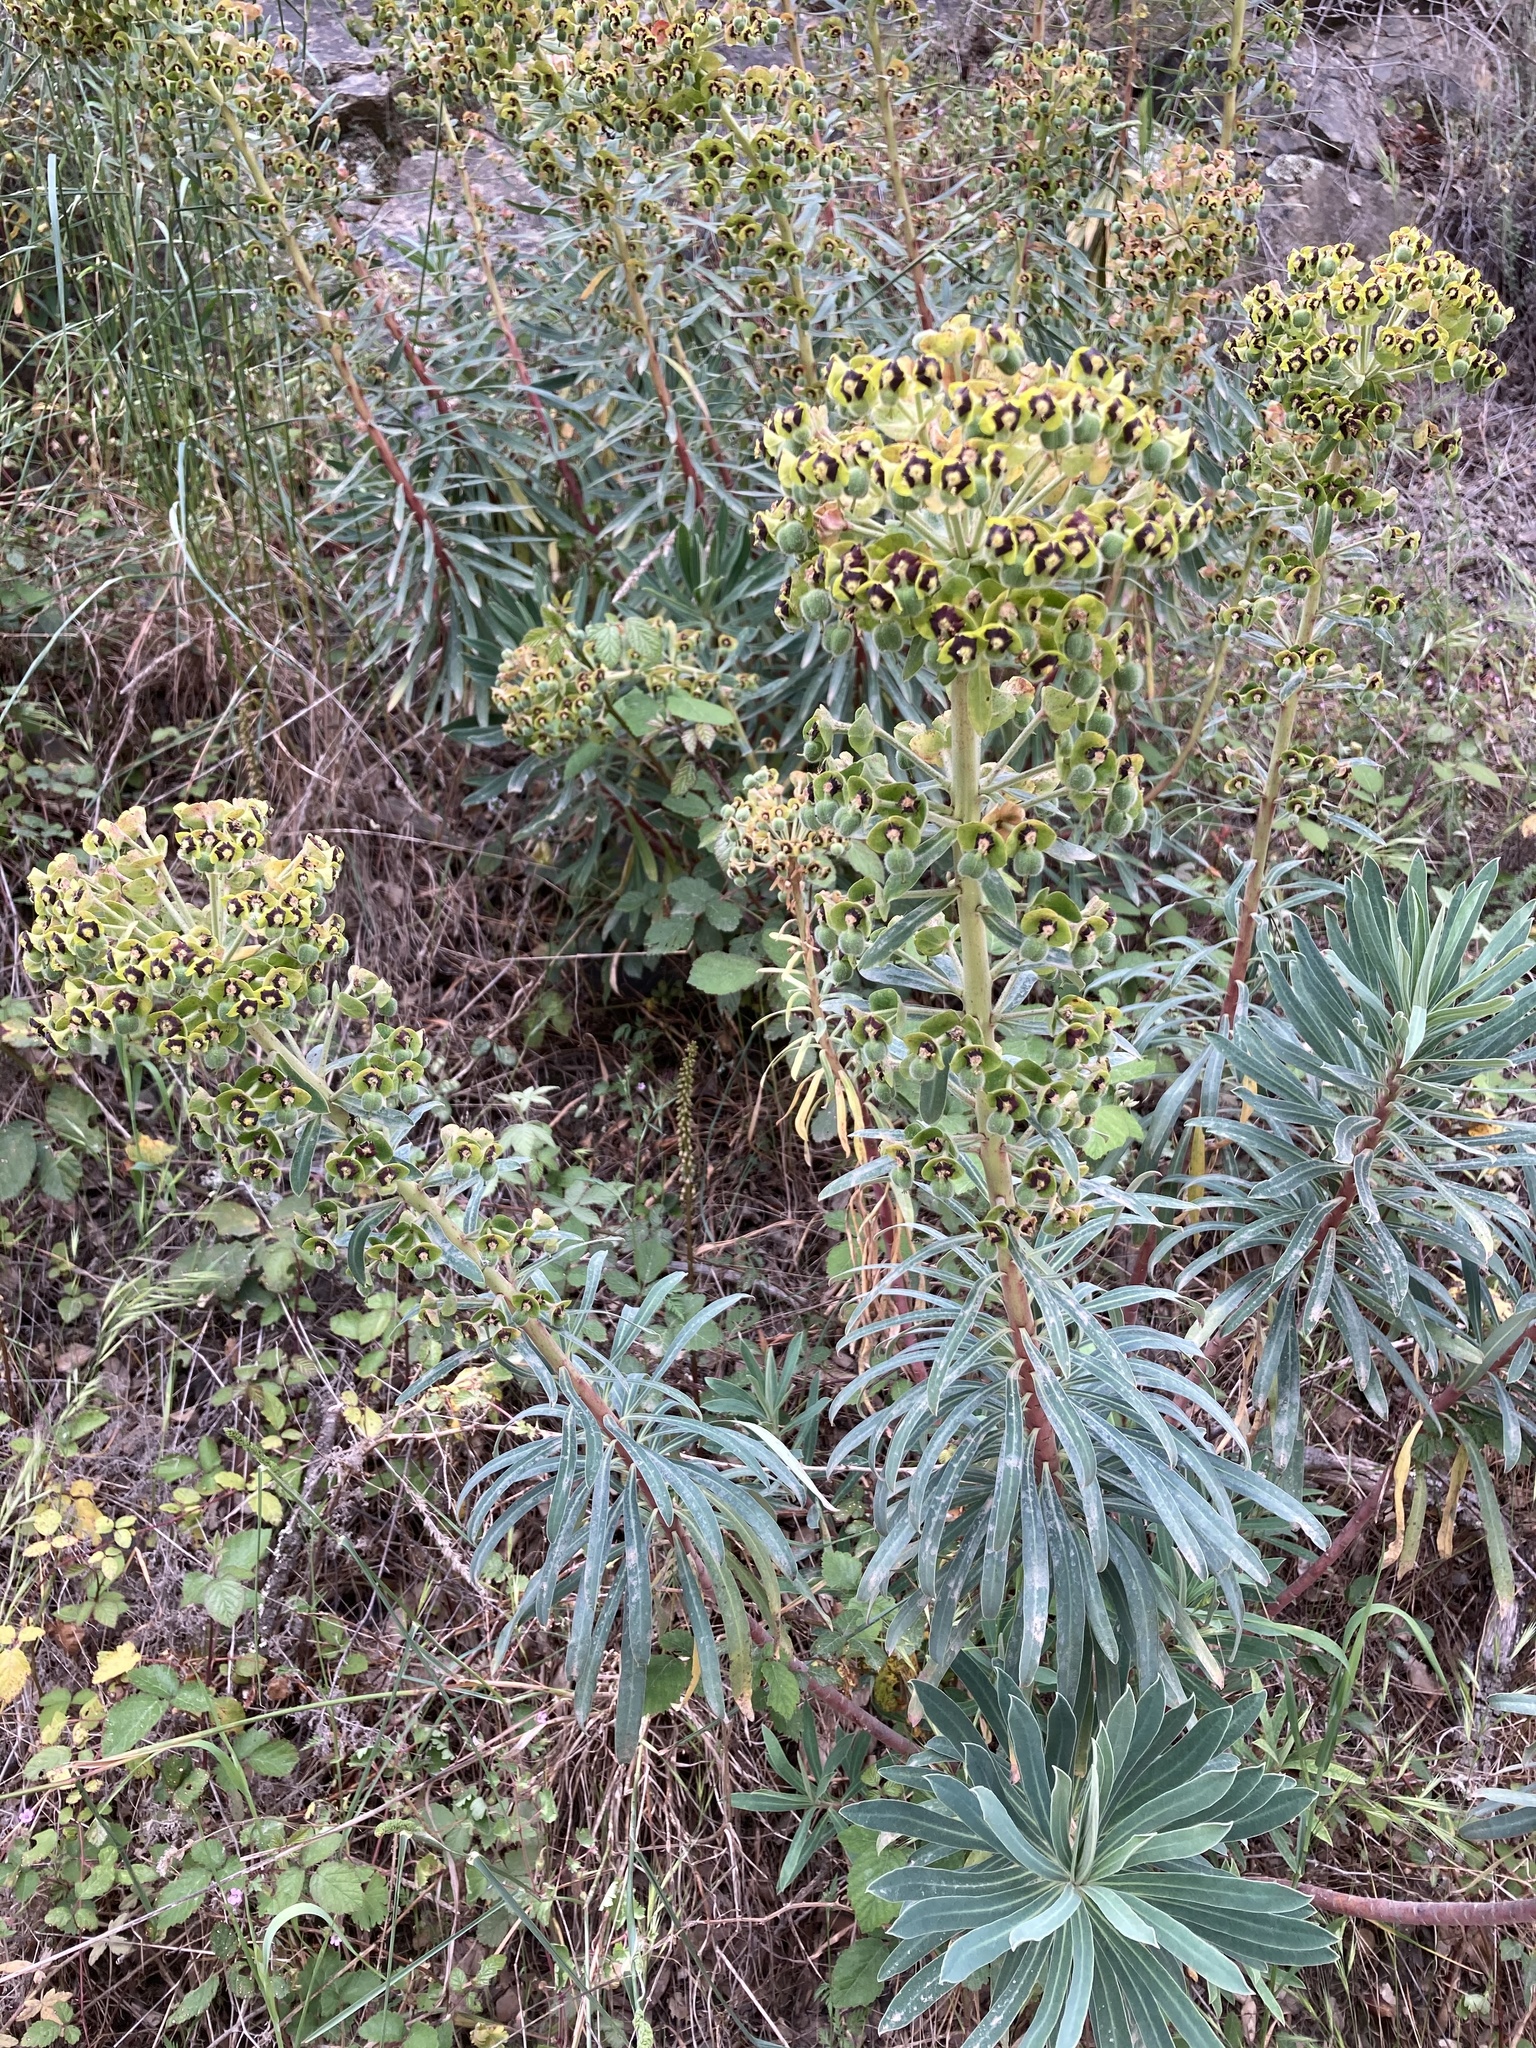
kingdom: Plantae
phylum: Tracheophyta
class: Magnoliopsida
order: Malpighiales
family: Euphorbiaceae
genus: Euphorbia
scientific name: Euphorbia characias
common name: Mediterranean spurge
